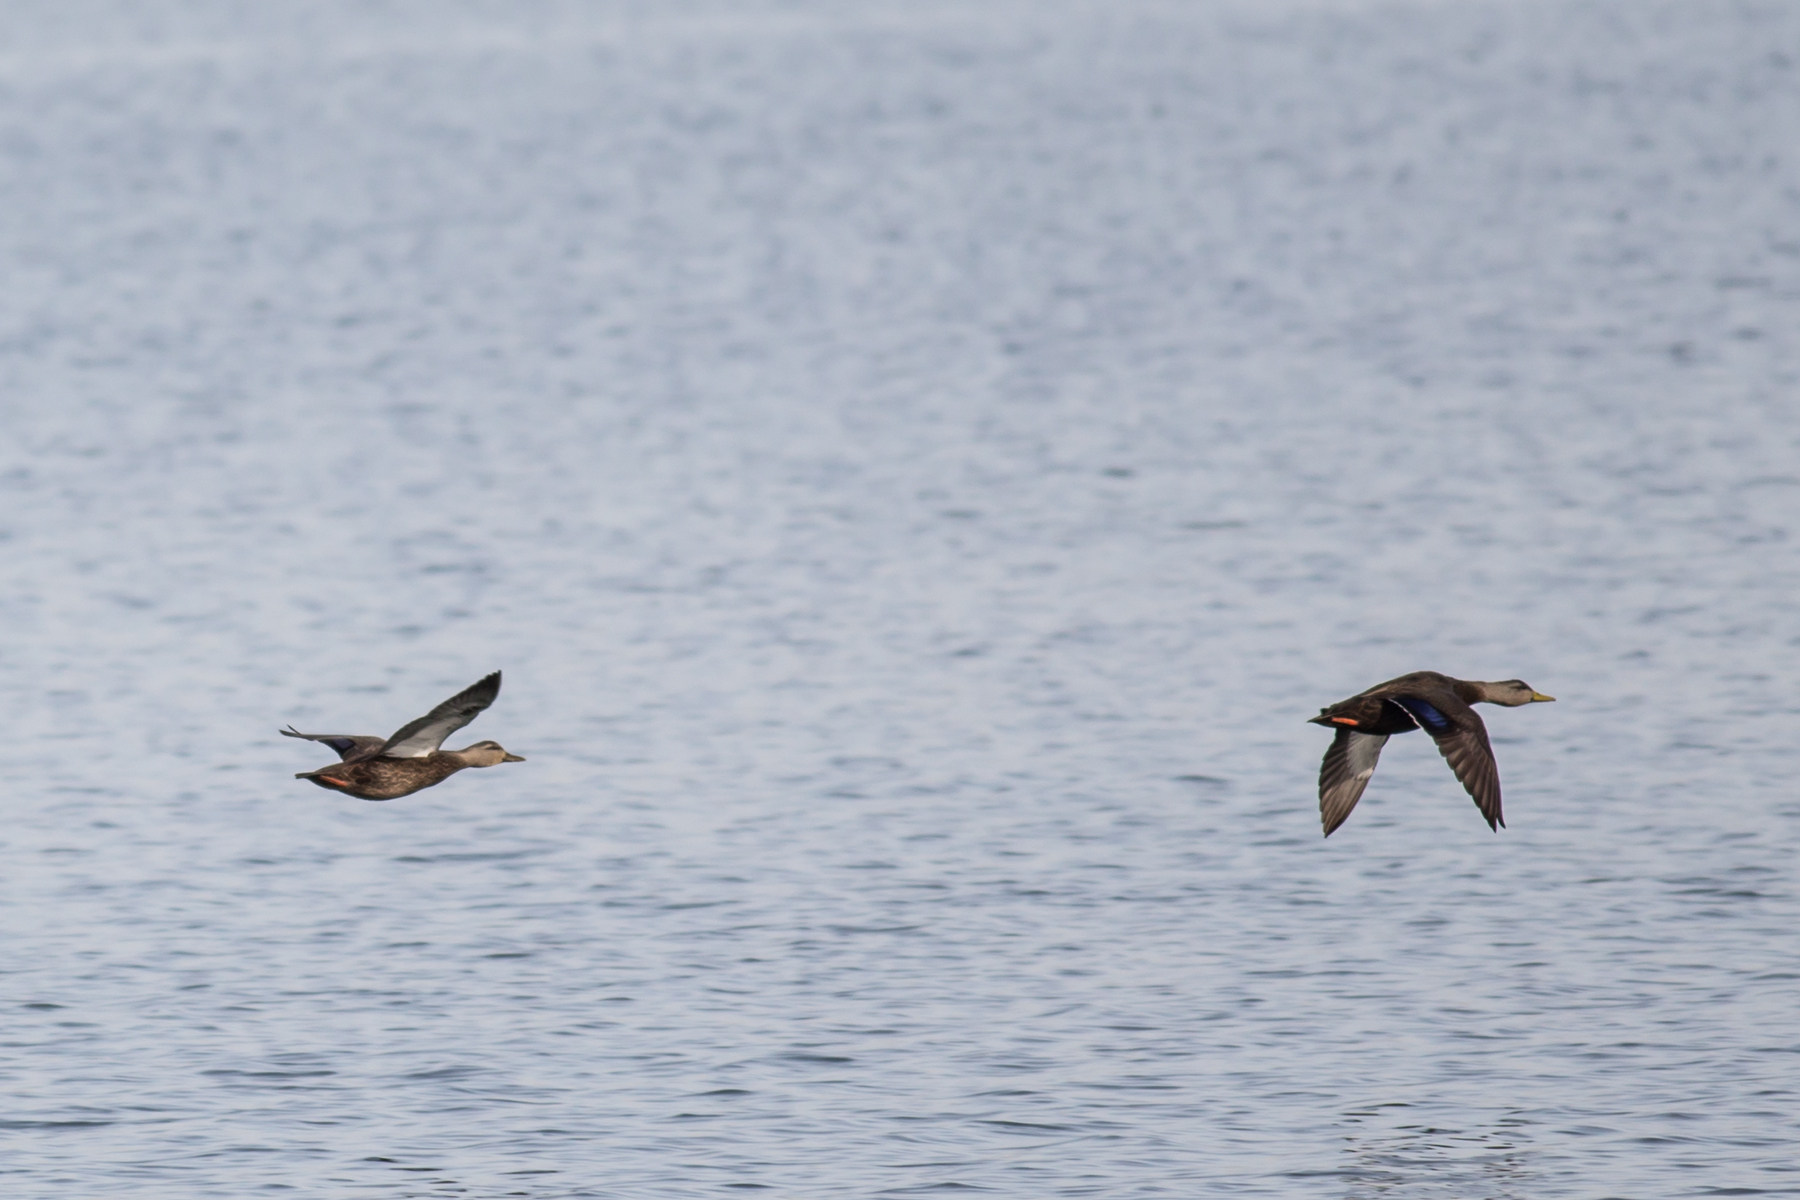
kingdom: Animalia
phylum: Chordata
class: Aves
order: Anseriformes
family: Anatidae
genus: Anas
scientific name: Anas rubripes
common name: American black duck
